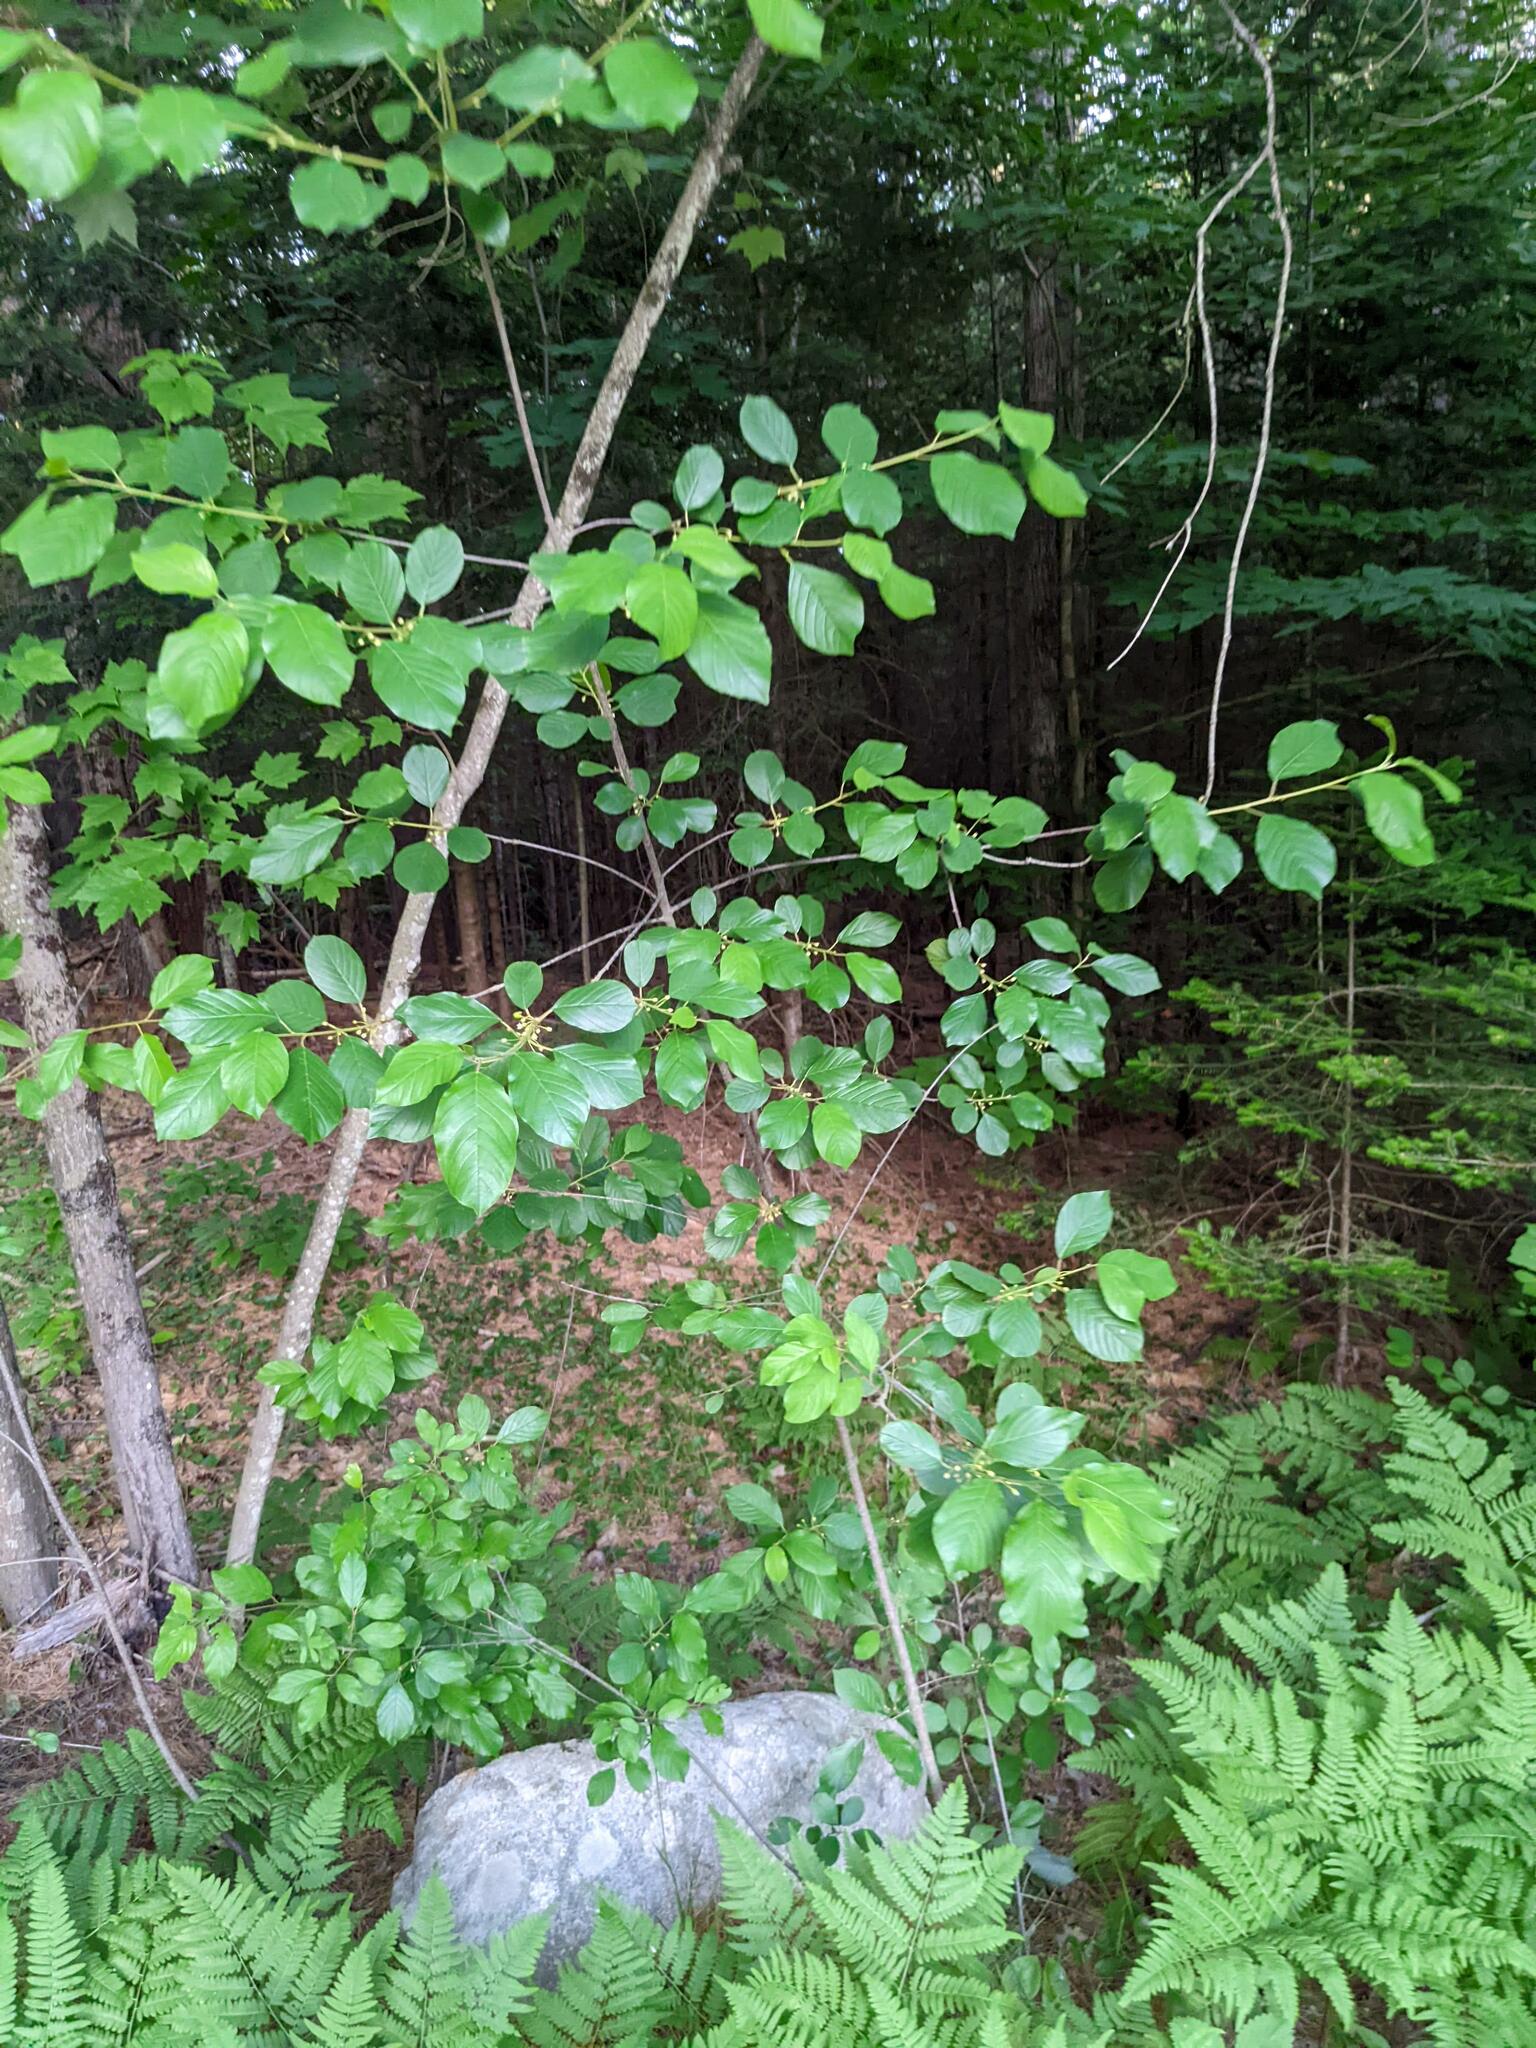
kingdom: Plantae
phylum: Tracheophyta
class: Magnoliopsida
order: Rosales
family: Rhamnaceae
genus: Frangula
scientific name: Frangula alnus
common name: Alder buckthorn
